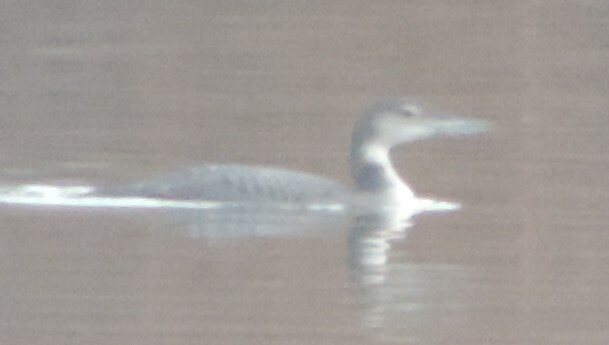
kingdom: Animalia
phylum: Chordata
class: Aves
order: Gaviiformes
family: Gaviidae
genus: Gavia
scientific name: Gavia immer
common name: Common loon
